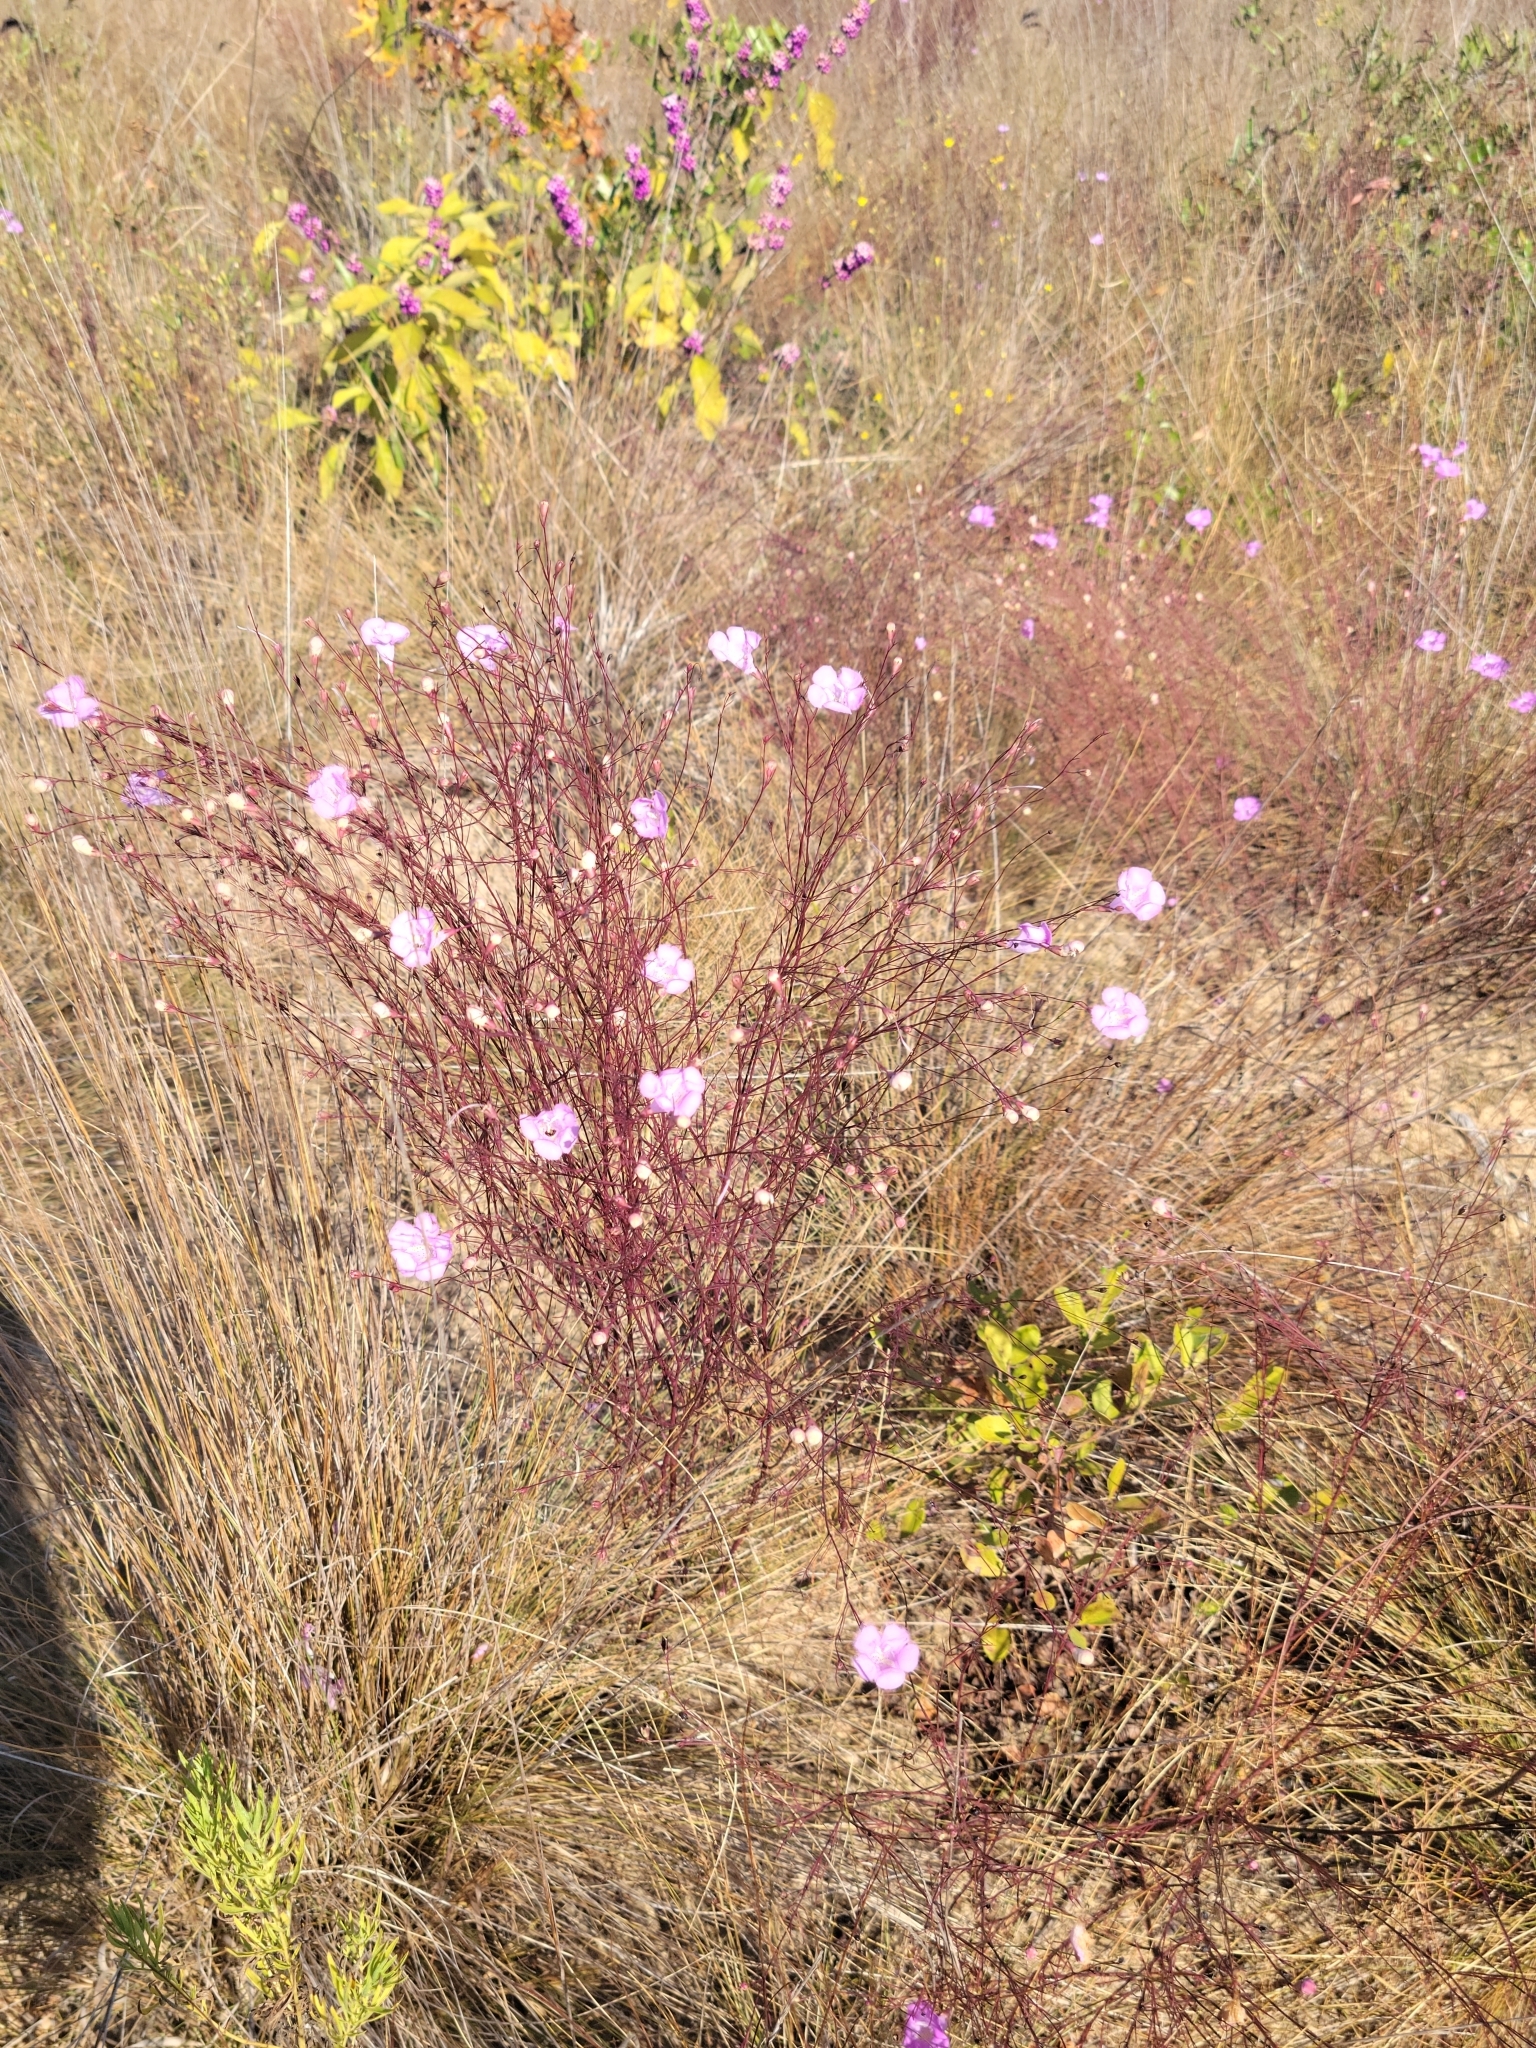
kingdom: Plantae
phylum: Tracheophyta
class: Magnoliopsida
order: Lamiales
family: Orobanchaceae
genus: Agalinis
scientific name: Agalinis plukenetii
